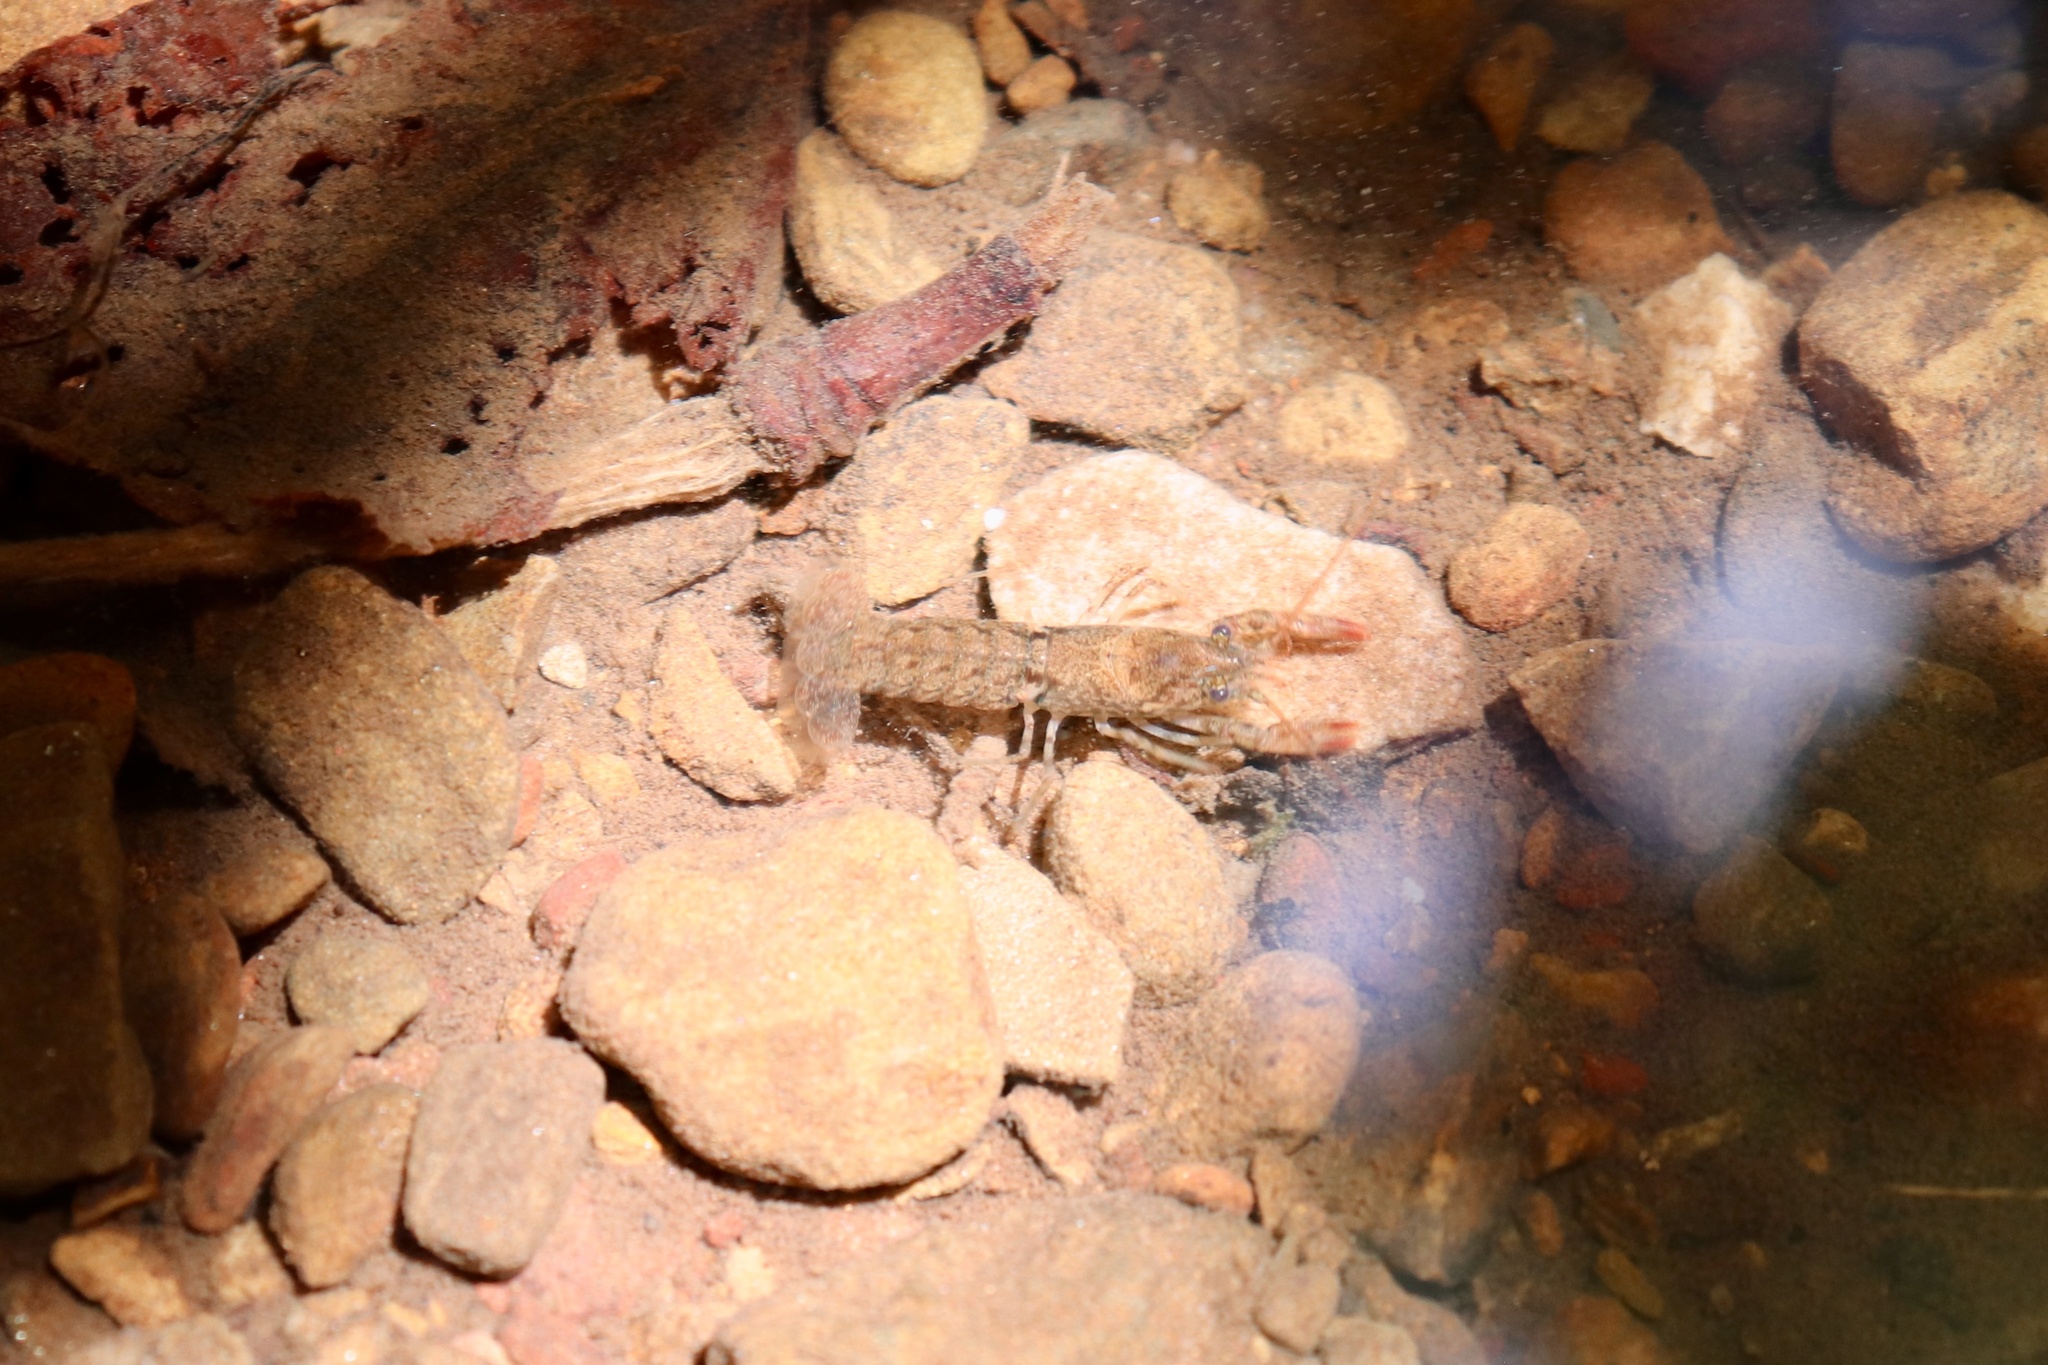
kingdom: Animalia
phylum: Arthropoda
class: Malacostraca
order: Decapoda
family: Cambaridae
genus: Cambarus
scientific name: Cambarus robustus
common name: Big water crayfish
